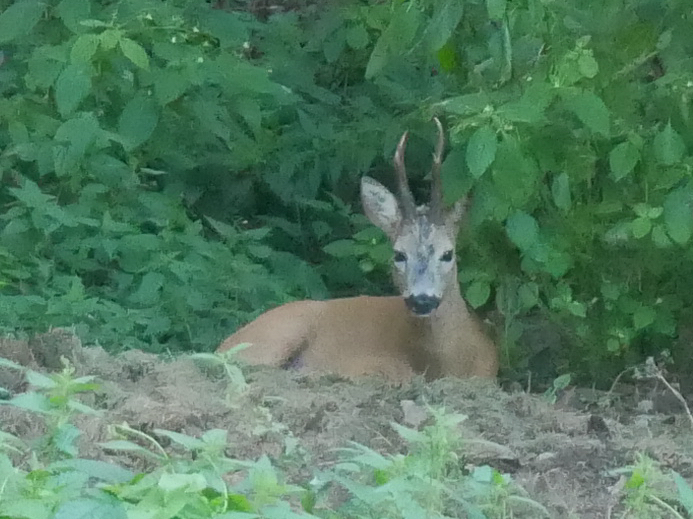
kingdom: Animalia
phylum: Chordata
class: Mammalia
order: Artiodactyla
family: Cervidae
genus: Capreolus
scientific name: Capreolus capreolus
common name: Western roe deer
